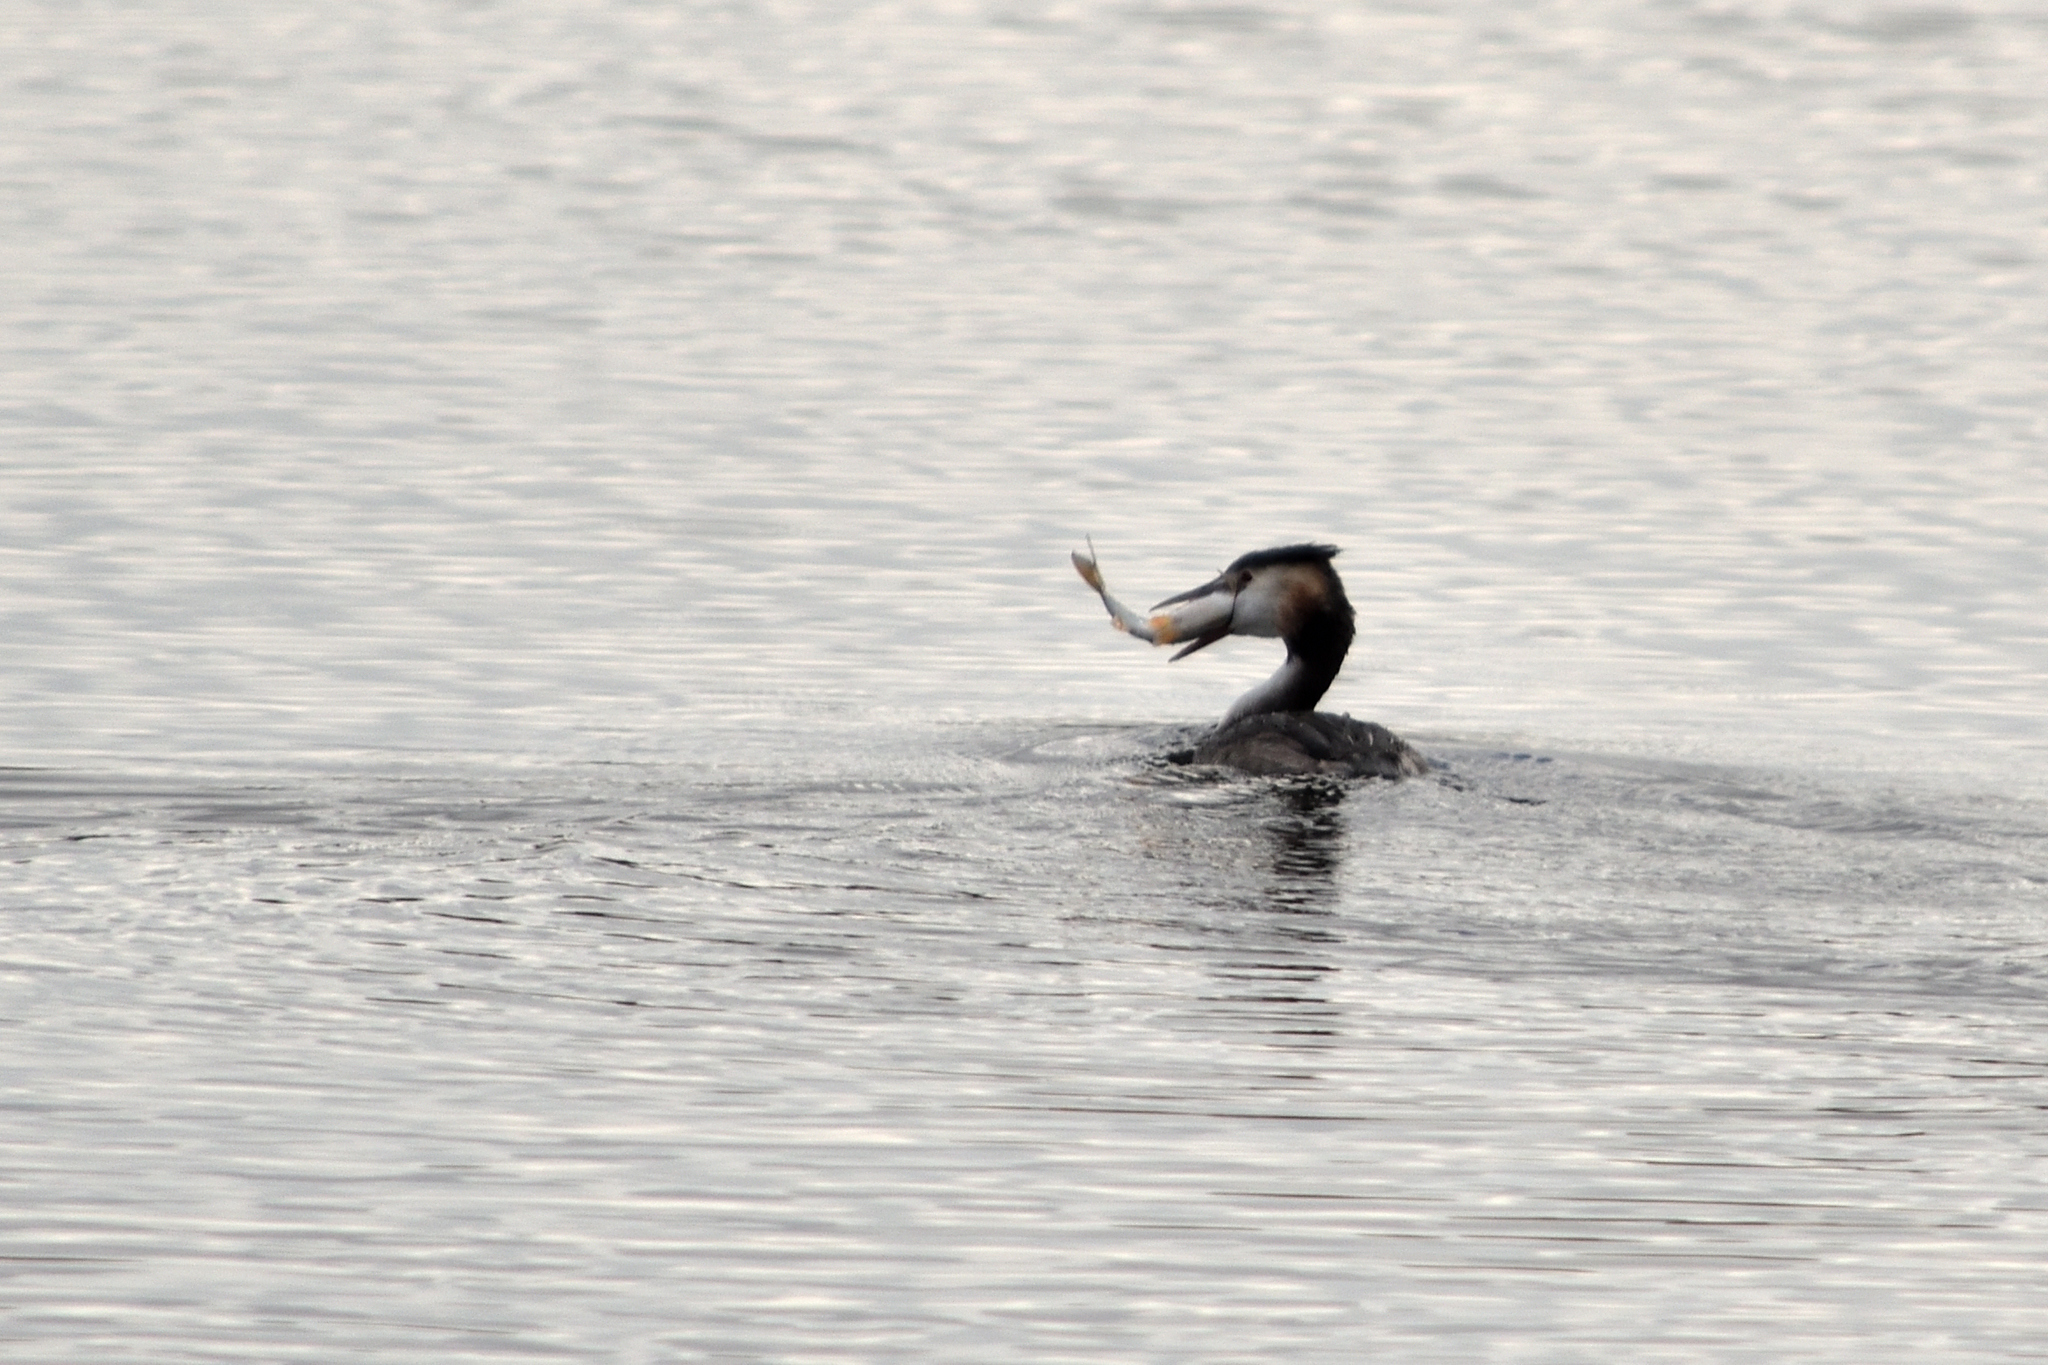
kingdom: Animalia
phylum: Chordata
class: Aves
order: Podicipediformes
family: Podicipedidae
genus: Podiceps
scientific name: Podiceps cristatus
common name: Great crested grebe
